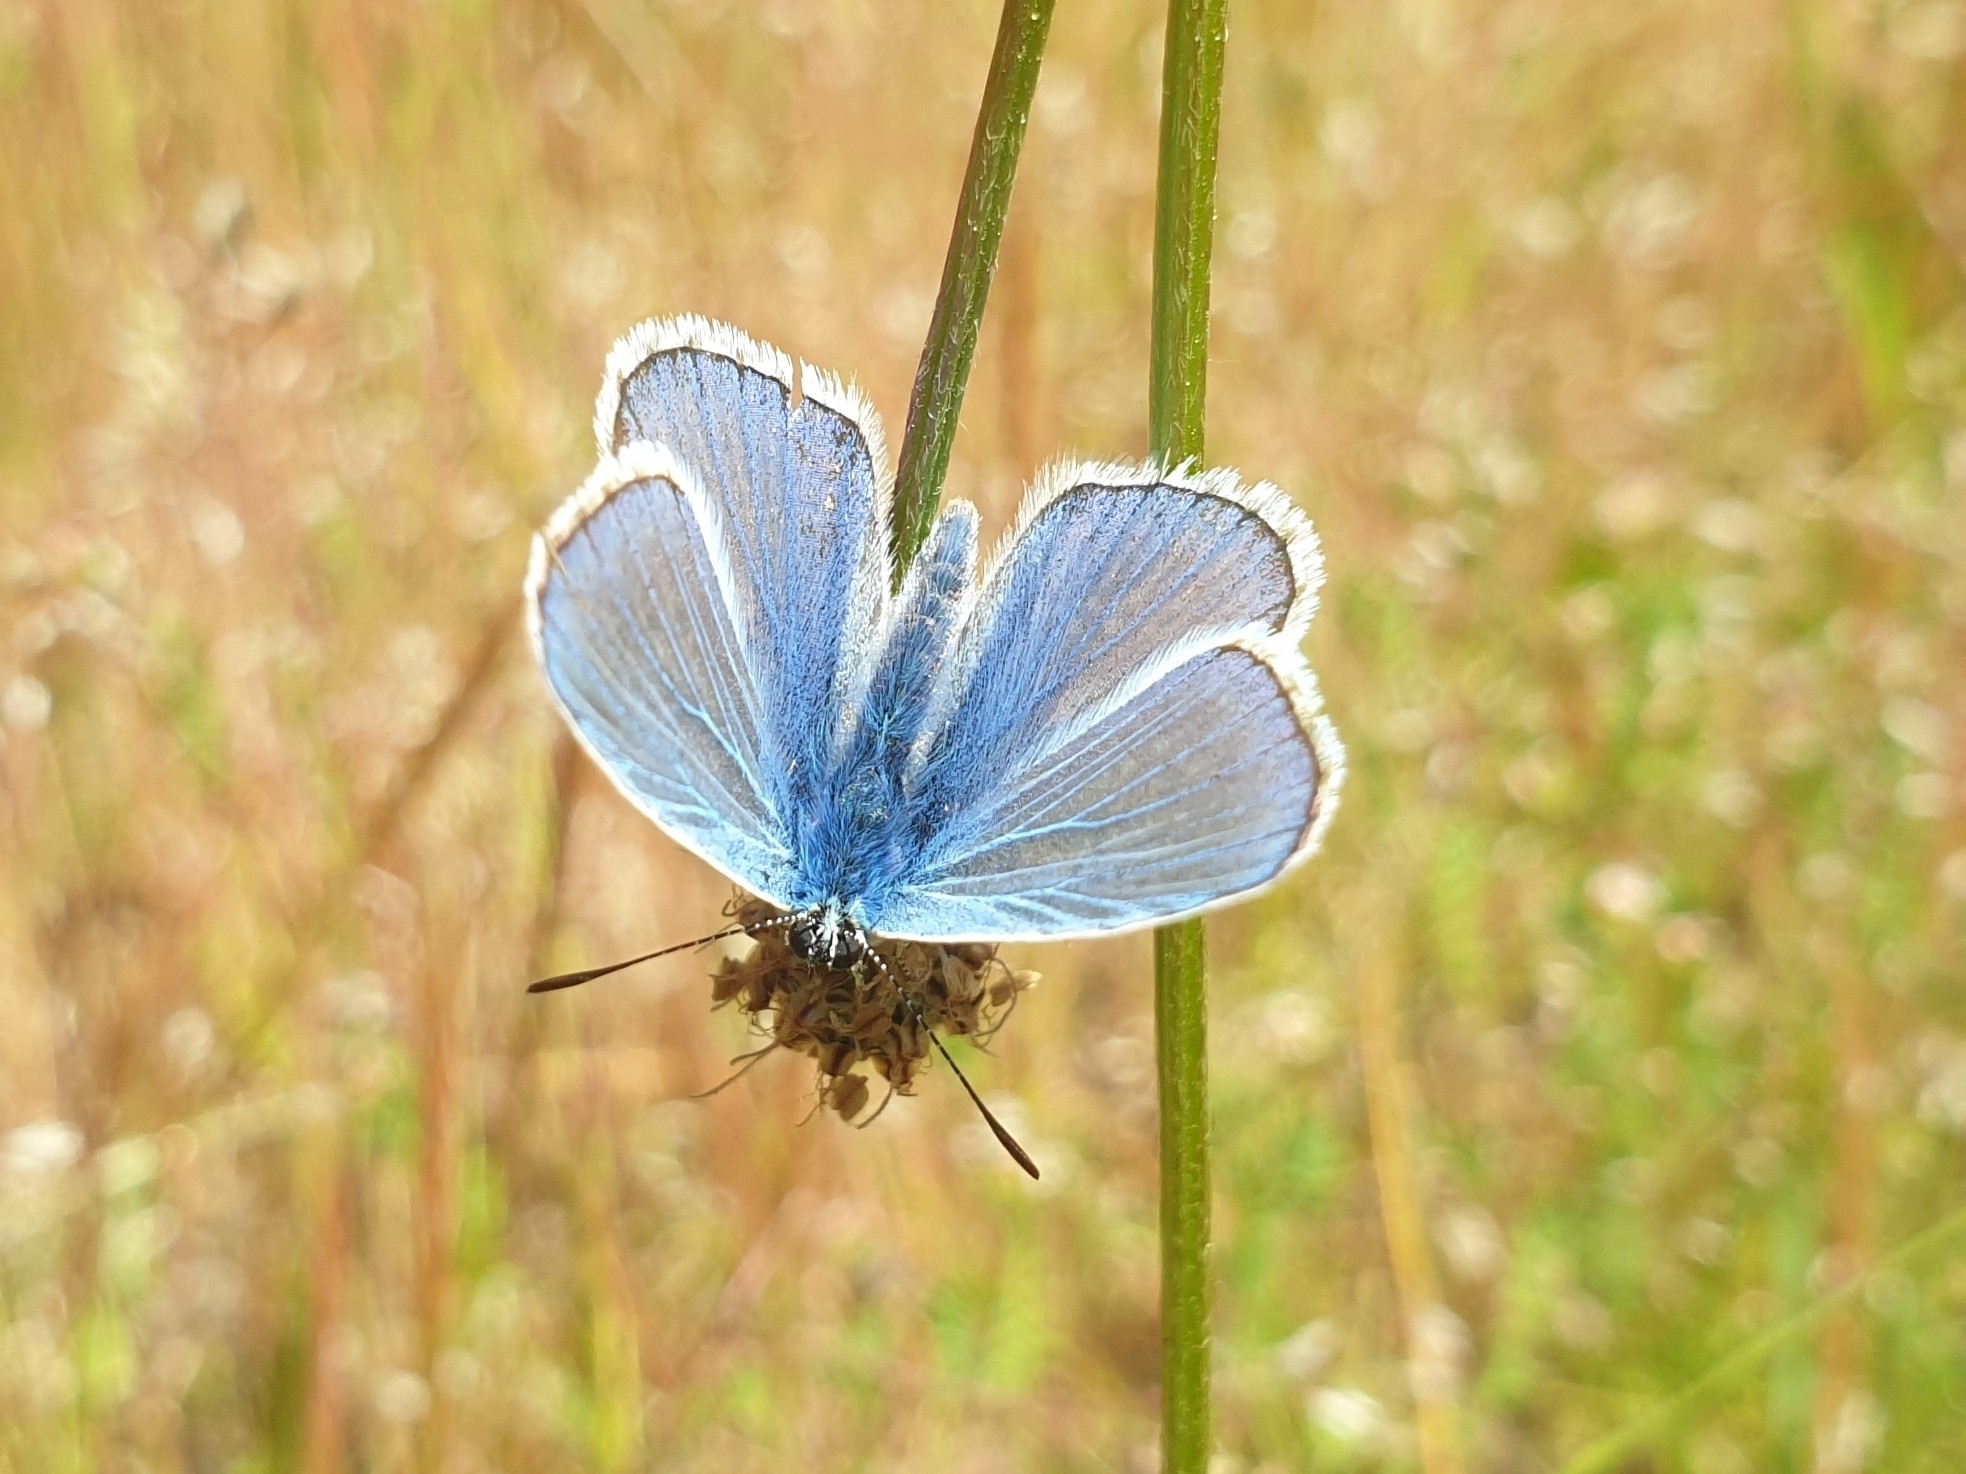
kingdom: Animalia
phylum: Arthropoda
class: Insecta
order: Lepidoptera
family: Lycaenidae
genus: Polyommatus
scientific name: Polyommatus icarus
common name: Common blue
